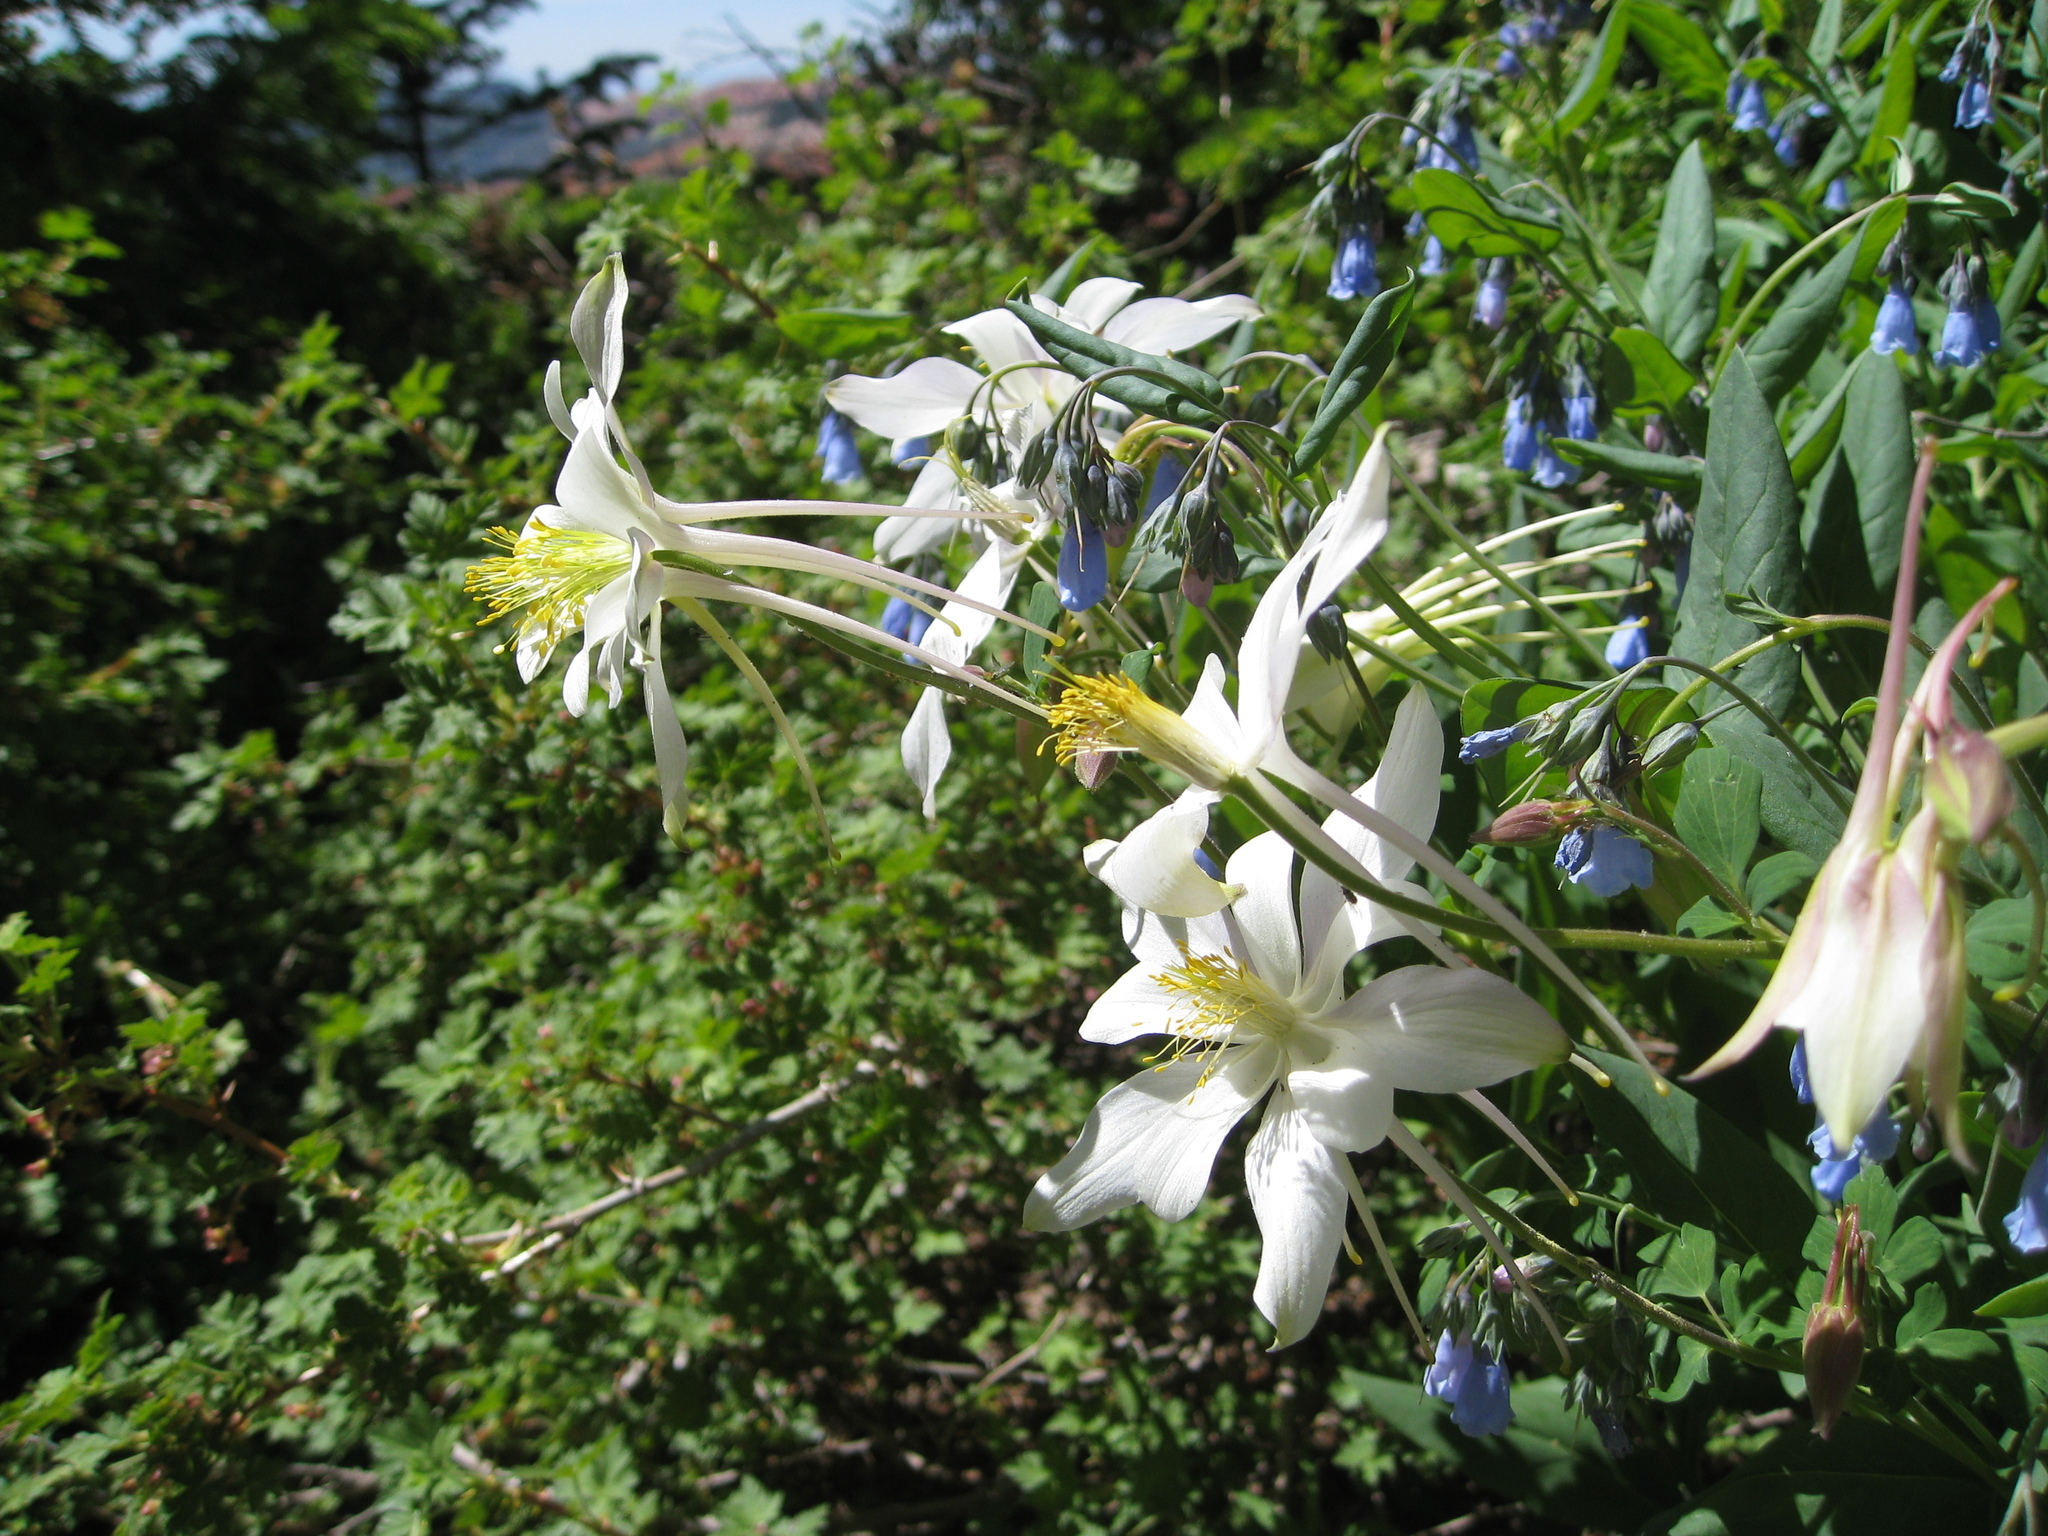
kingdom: Plantae
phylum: Tracheophyta
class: Magnoliopsida
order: Ranunculales
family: Ranunculaceae
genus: Aquilegia
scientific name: Aquilegia coerulea
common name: Rocky mountain columbine
